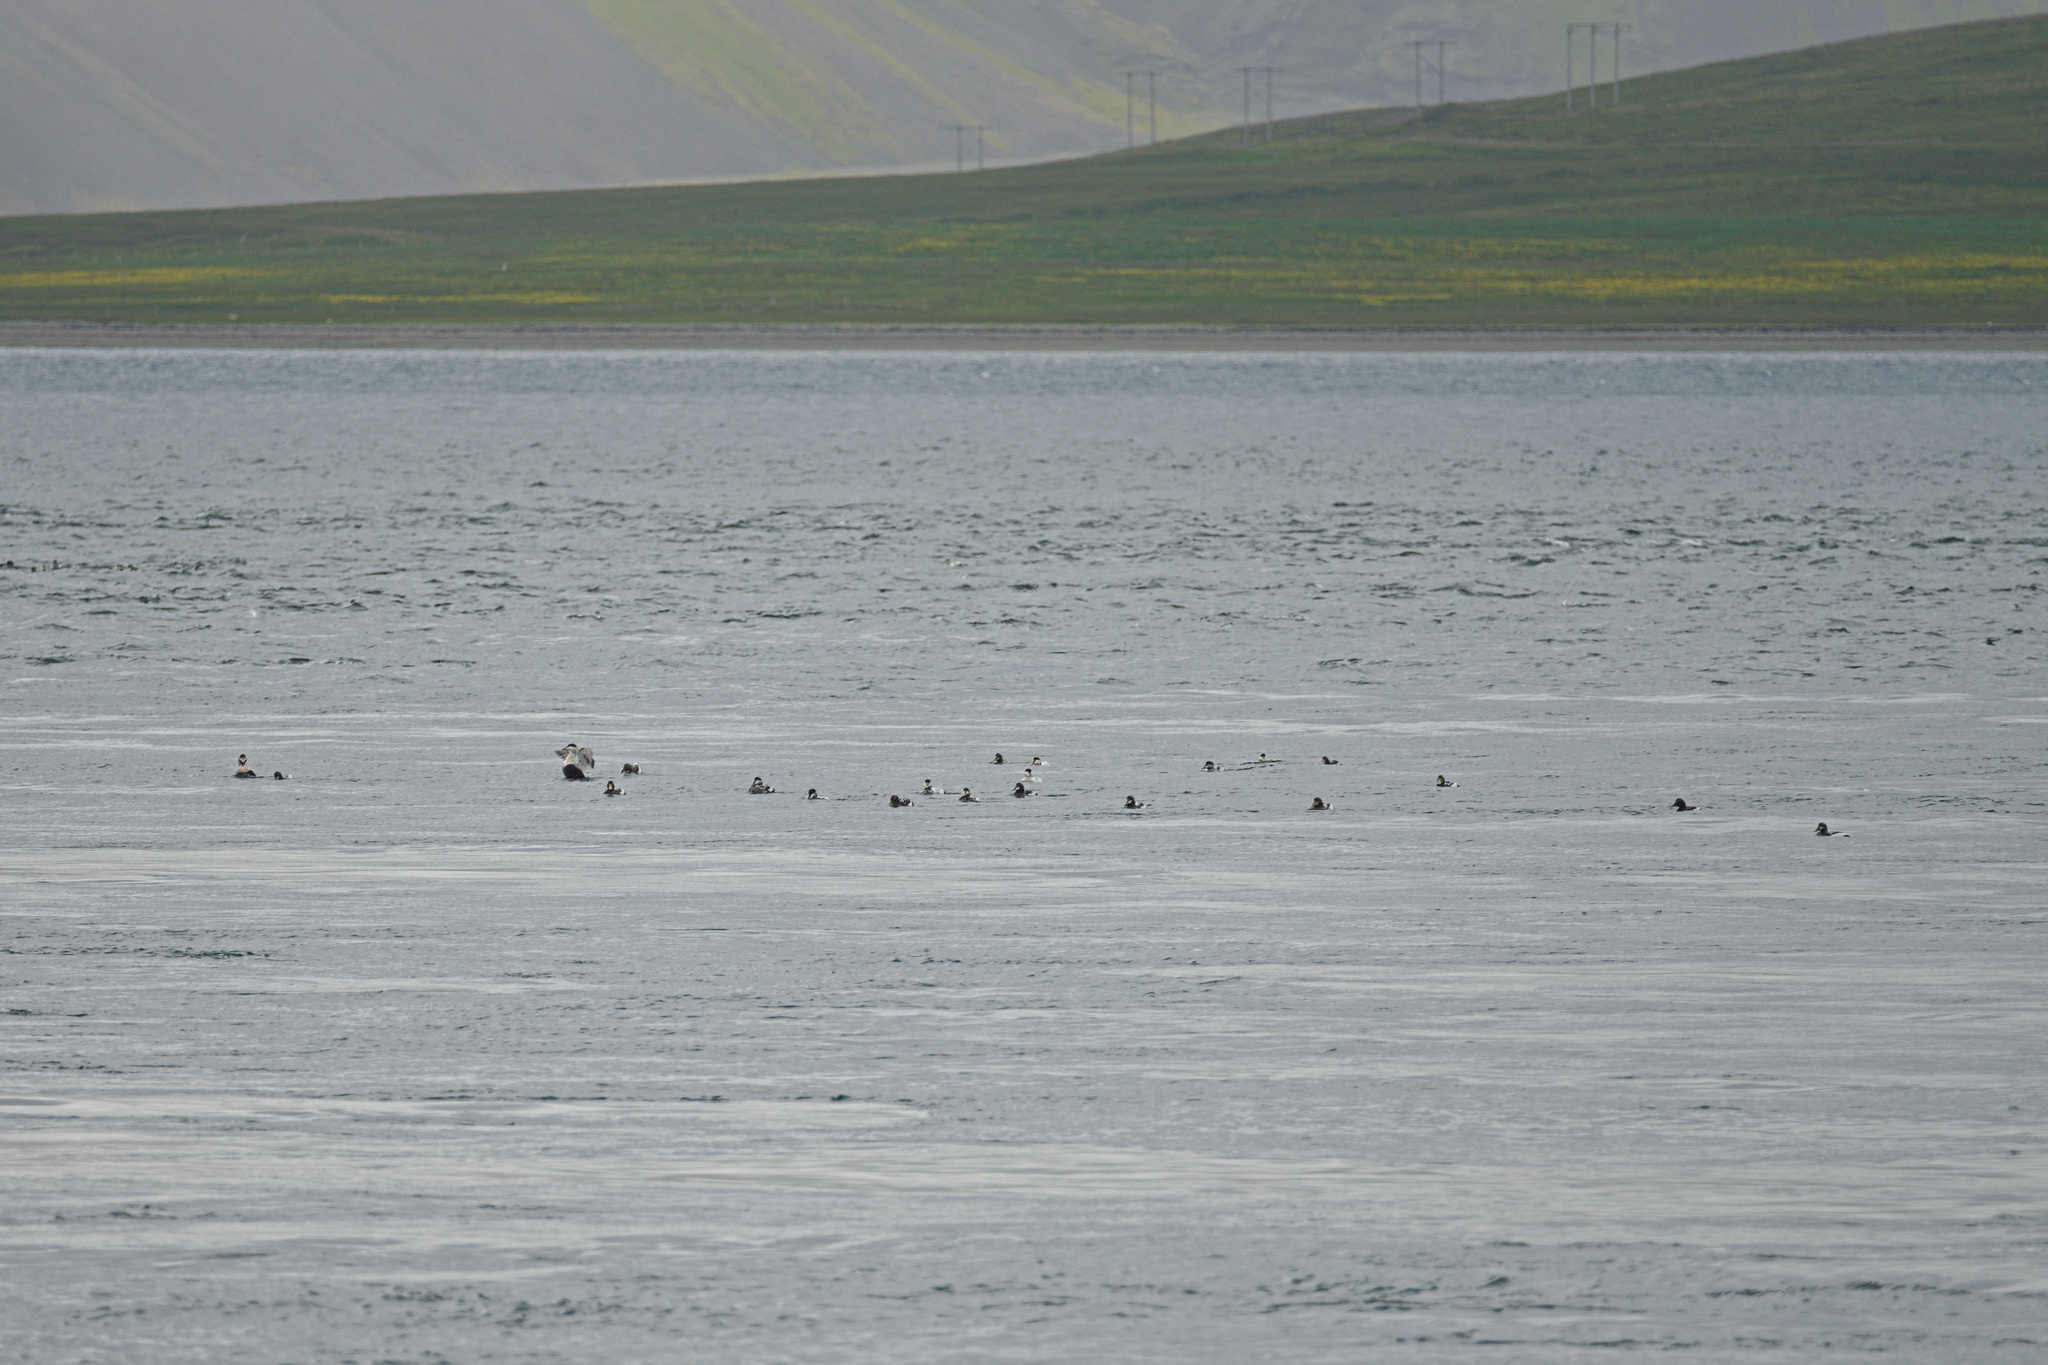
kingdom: Animalia
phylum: Chordata
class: Aves
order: Anseriformes
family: Anatidae
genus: Somateria
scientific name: Somateria mollissima
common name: Common eider
